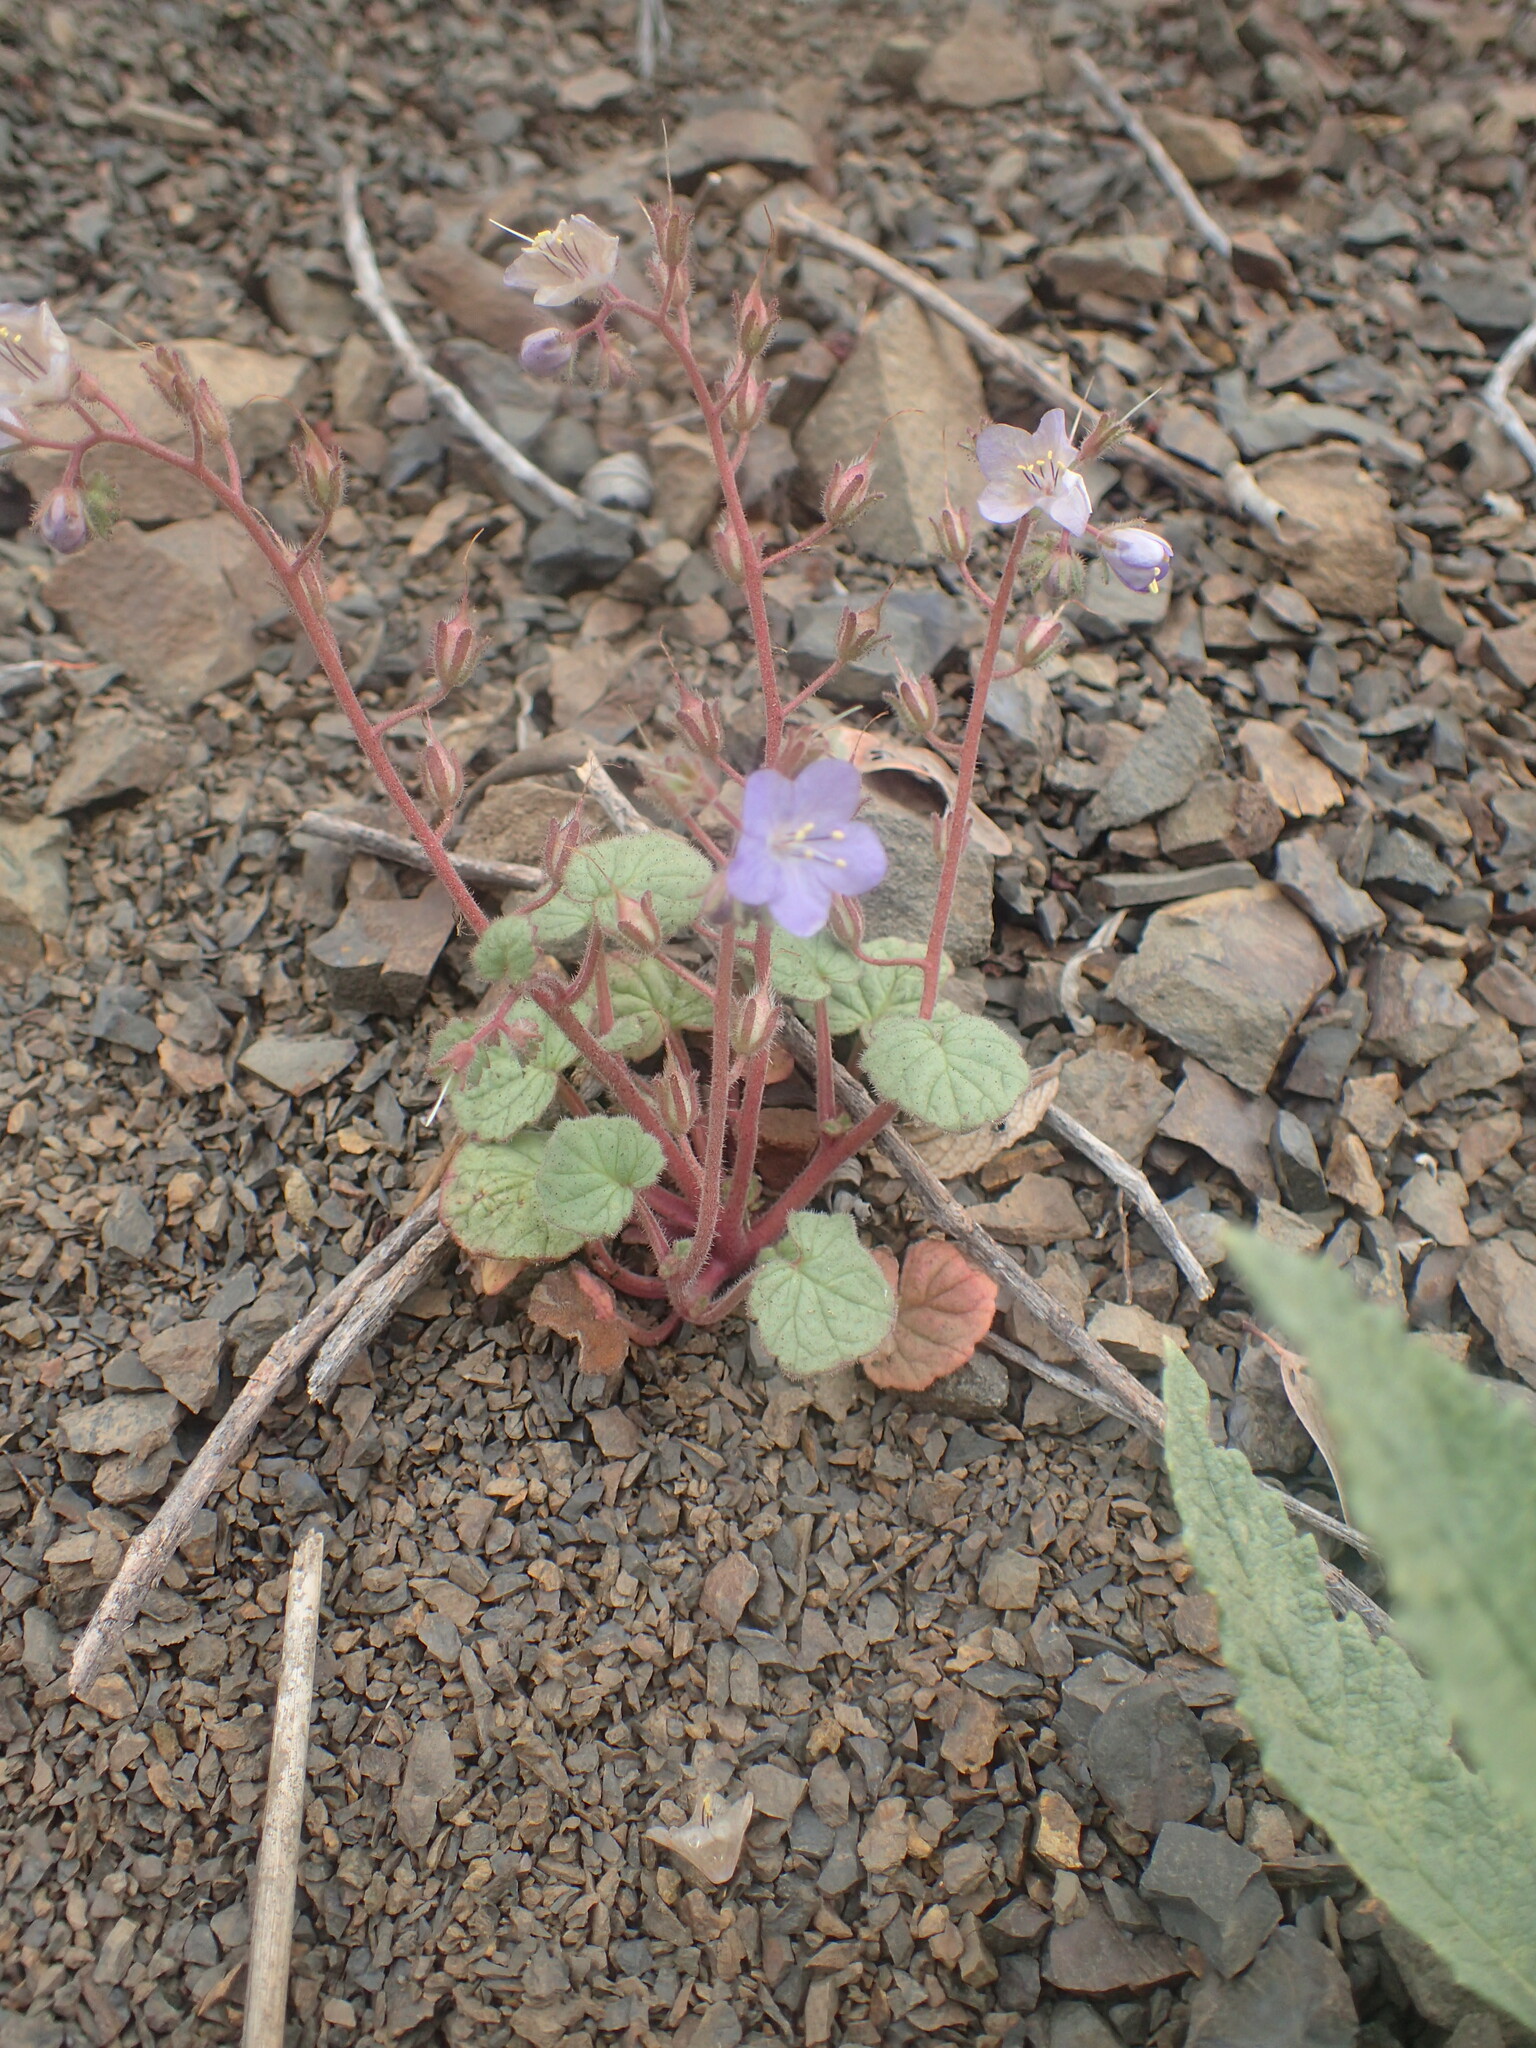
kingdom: Plantae
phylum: Tracheophyta
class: Magnoliopsida
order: Boraginales
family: Hydrophyllaceae
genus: Phacelia
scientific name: Phacelia longipes
